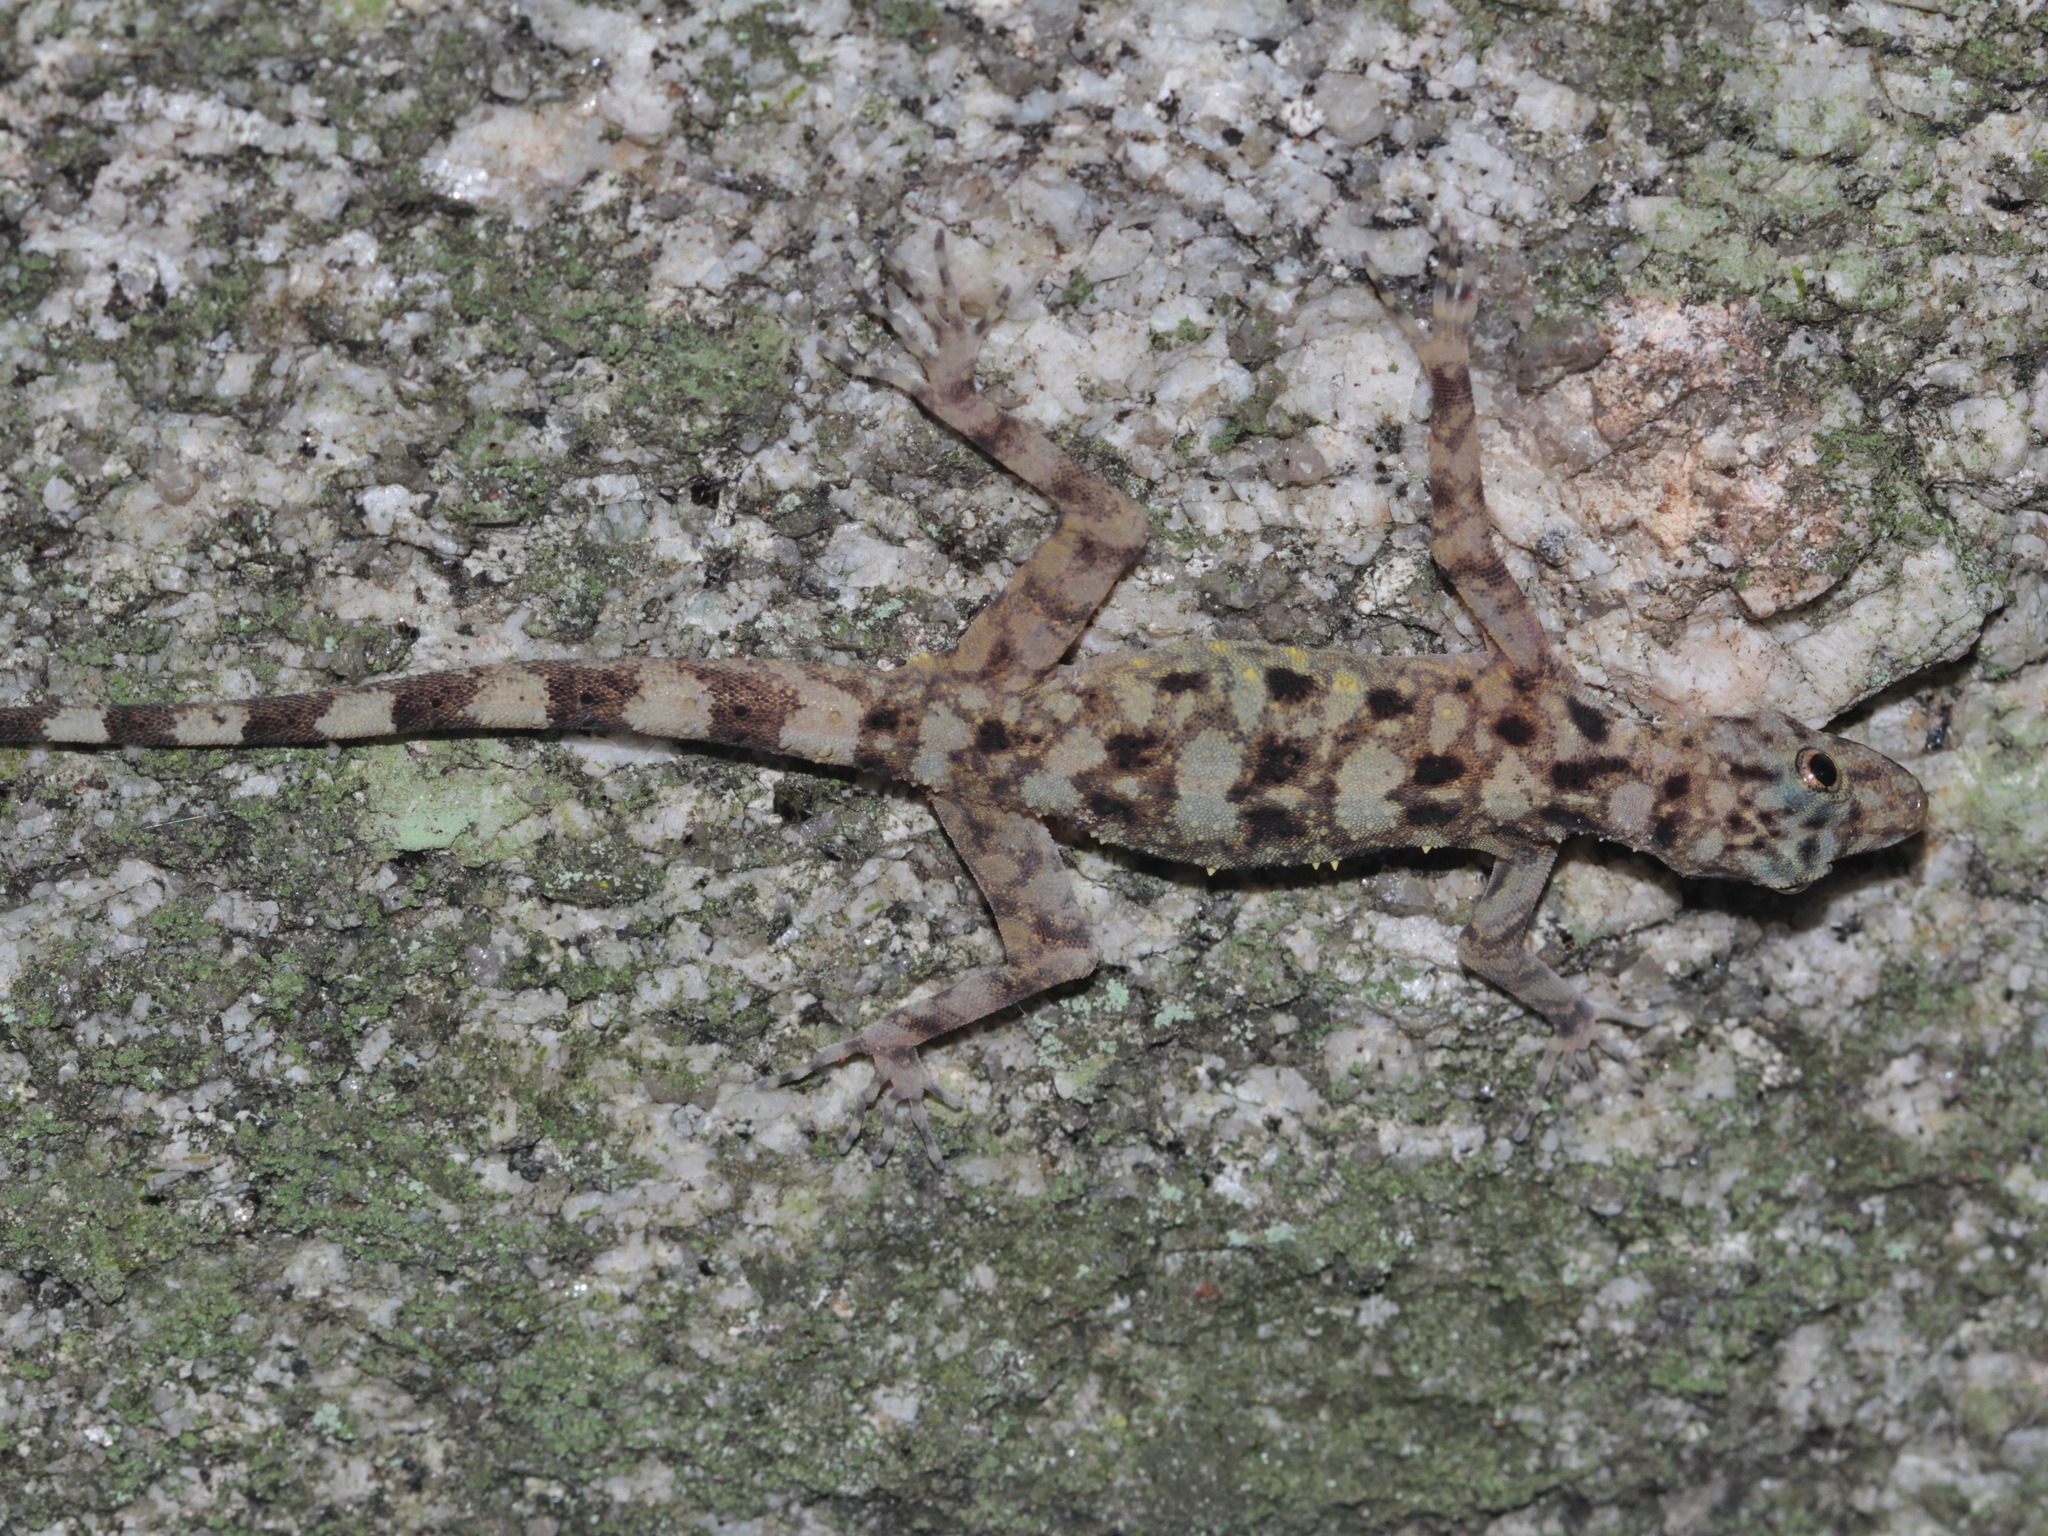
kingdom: Animalia
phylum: Chordata
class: Squamata
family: Gekkonidae
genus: Cnemaspis
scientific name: Cnemaspis punctatonuchalis
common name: Spotted-neck rock gecko
